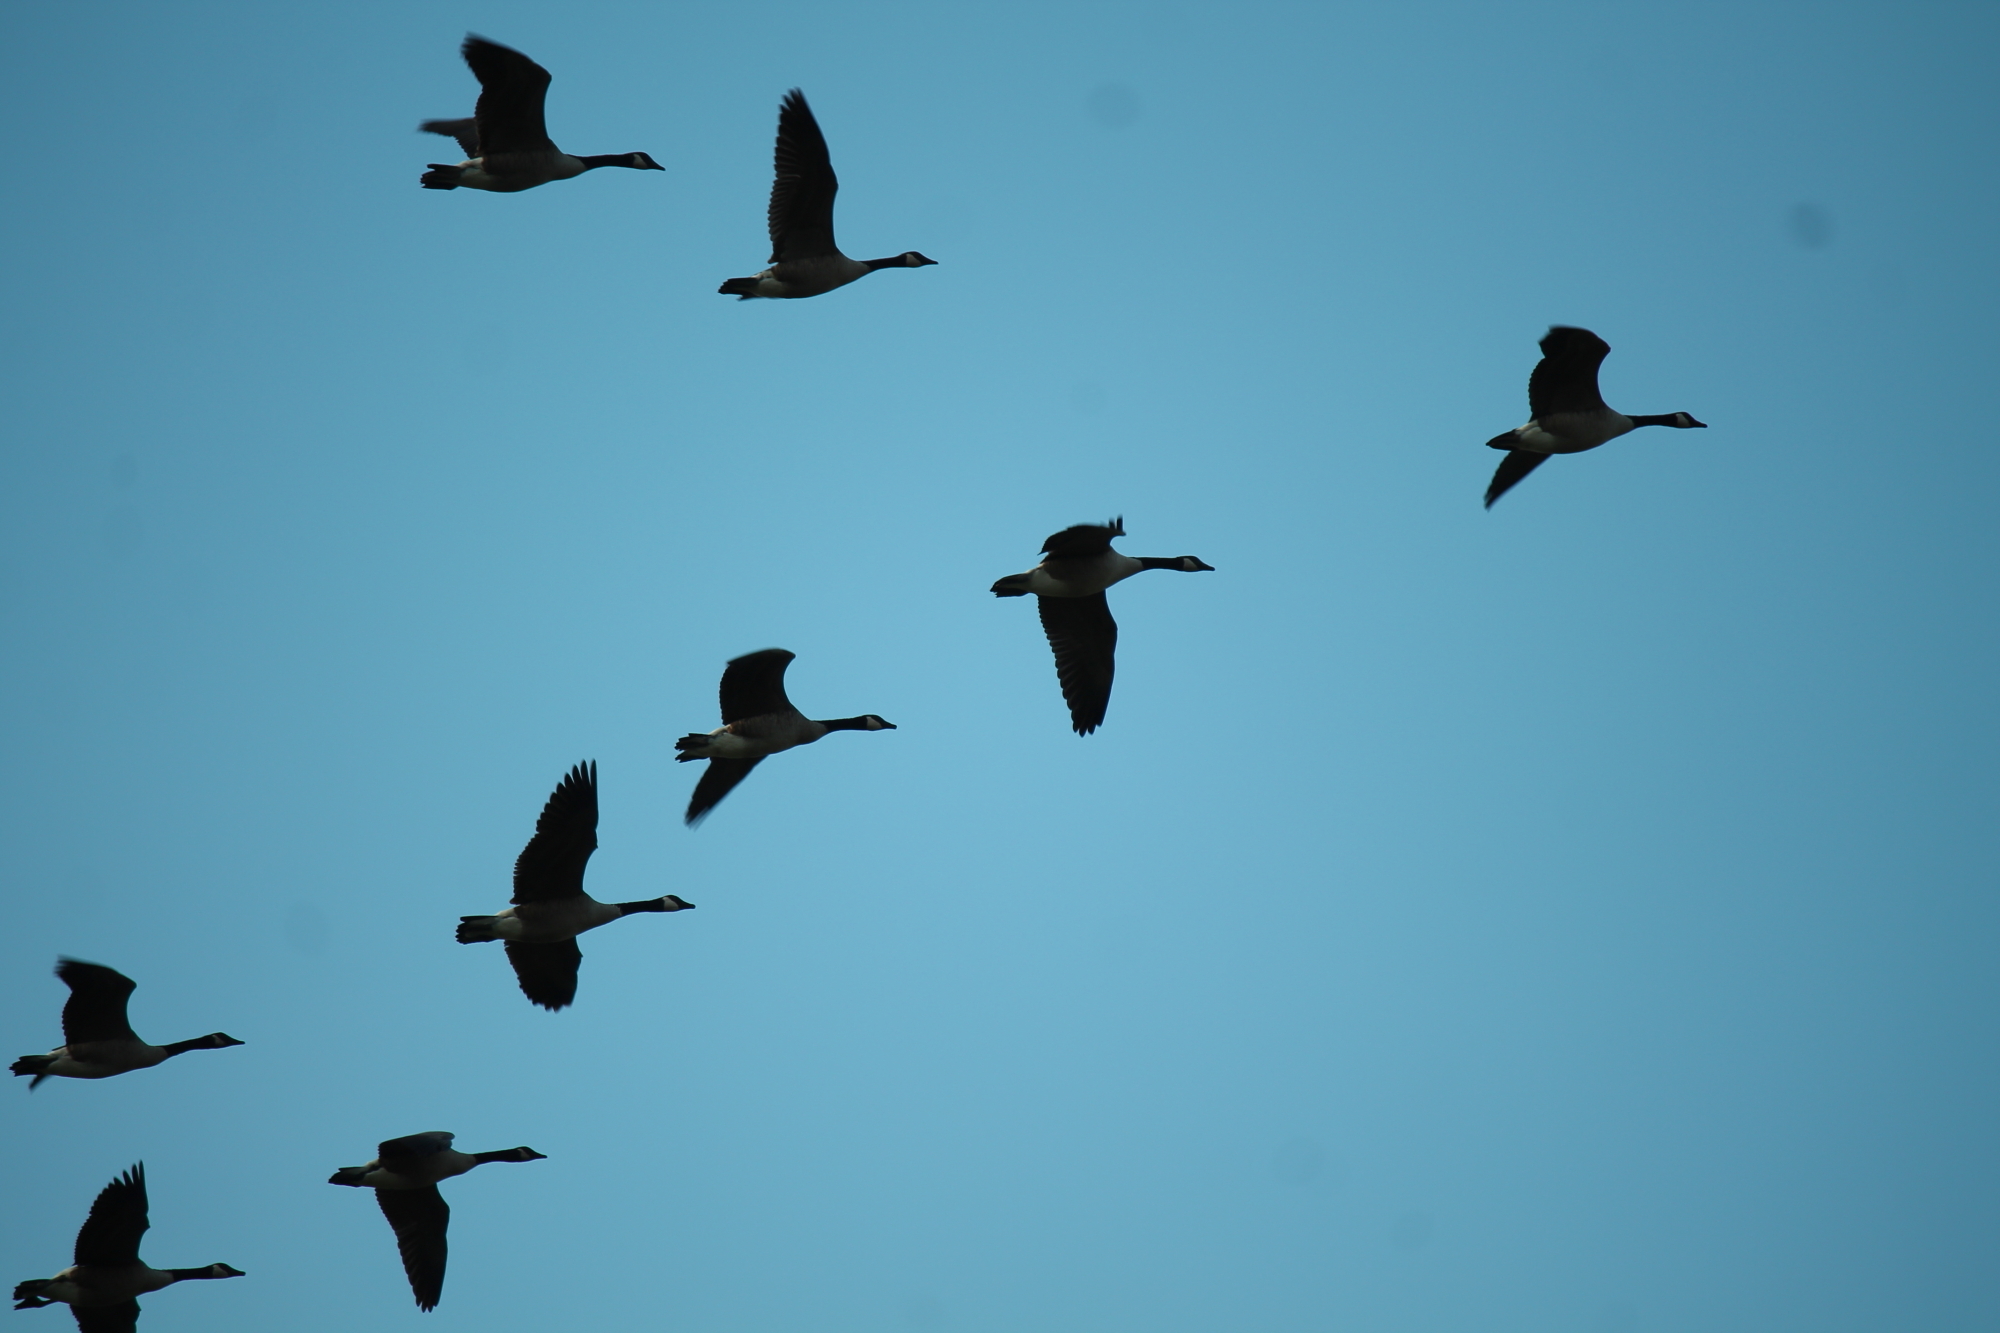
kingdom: Animalia
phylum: Chordata
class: Aves
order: Anseriformes
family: Anatidae
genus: Branta
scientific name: Branta canadensis
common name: Canada goose
